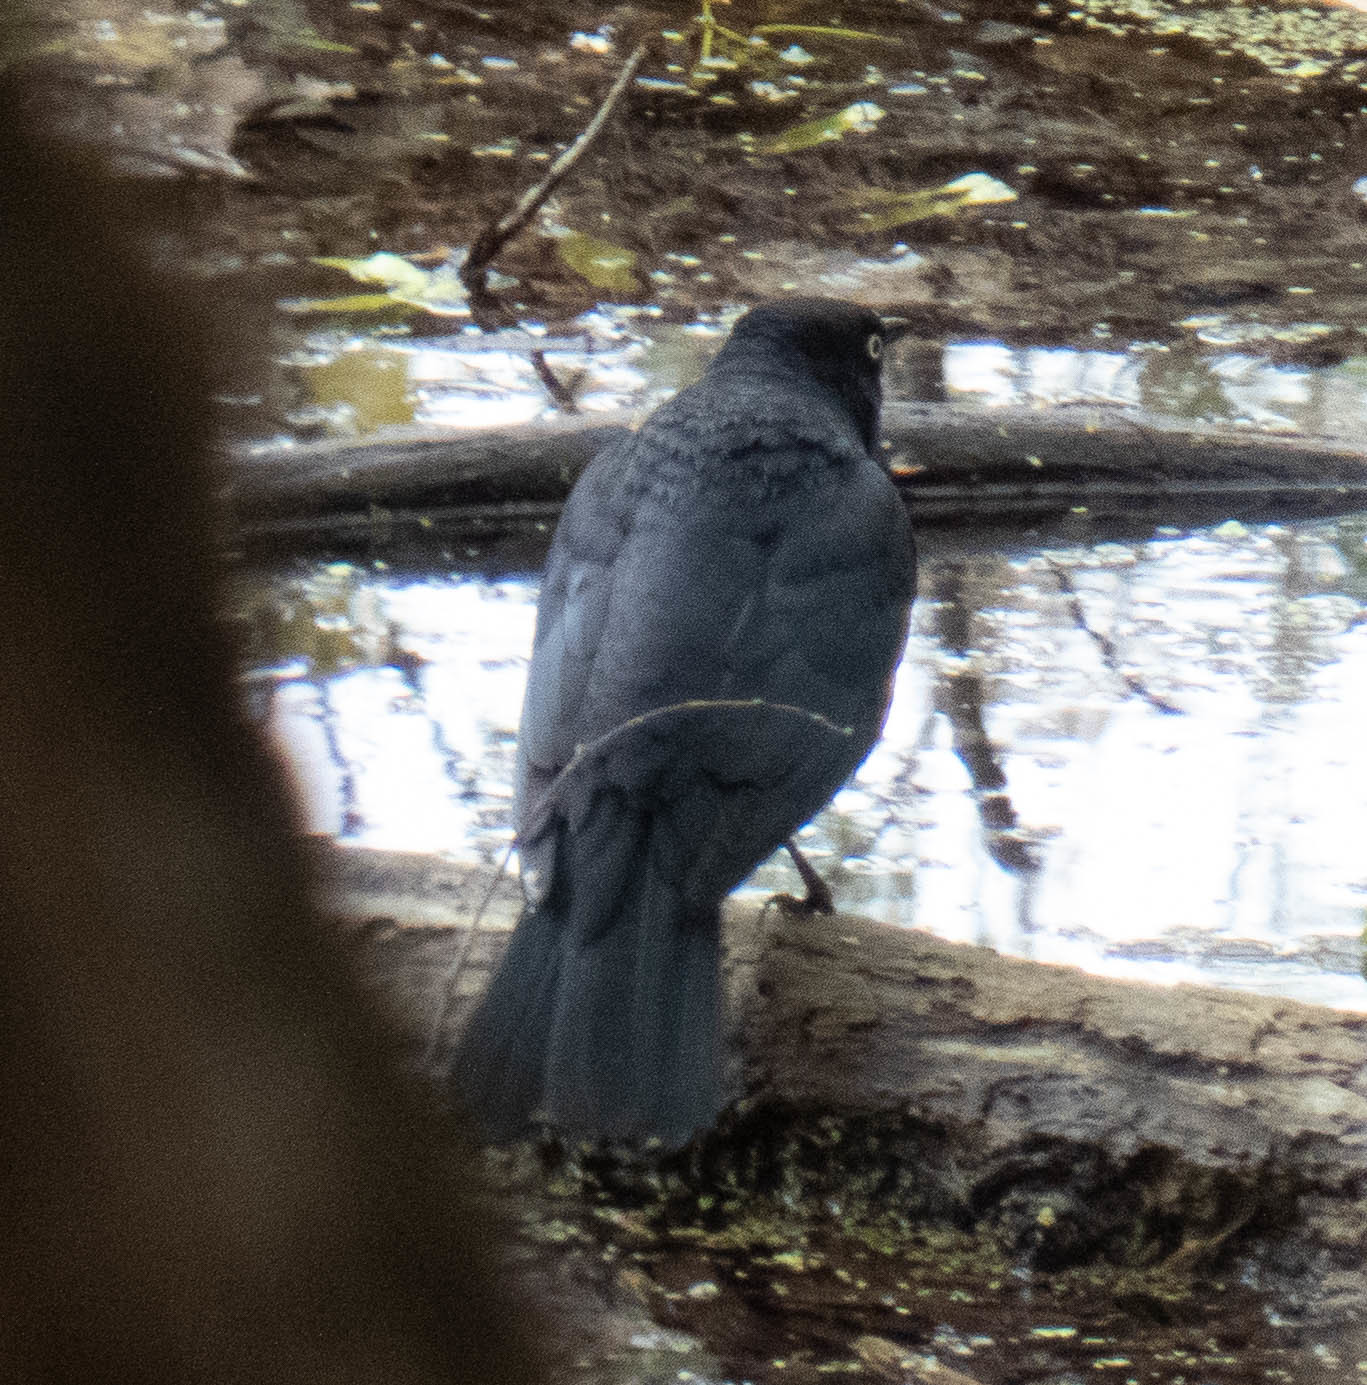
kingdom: Animalia
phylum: Chordata
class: Aves
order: Passeriformes
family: Icteridae
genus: Euphagus
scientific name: Euphagus carolinus
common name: Rusty blackbird
